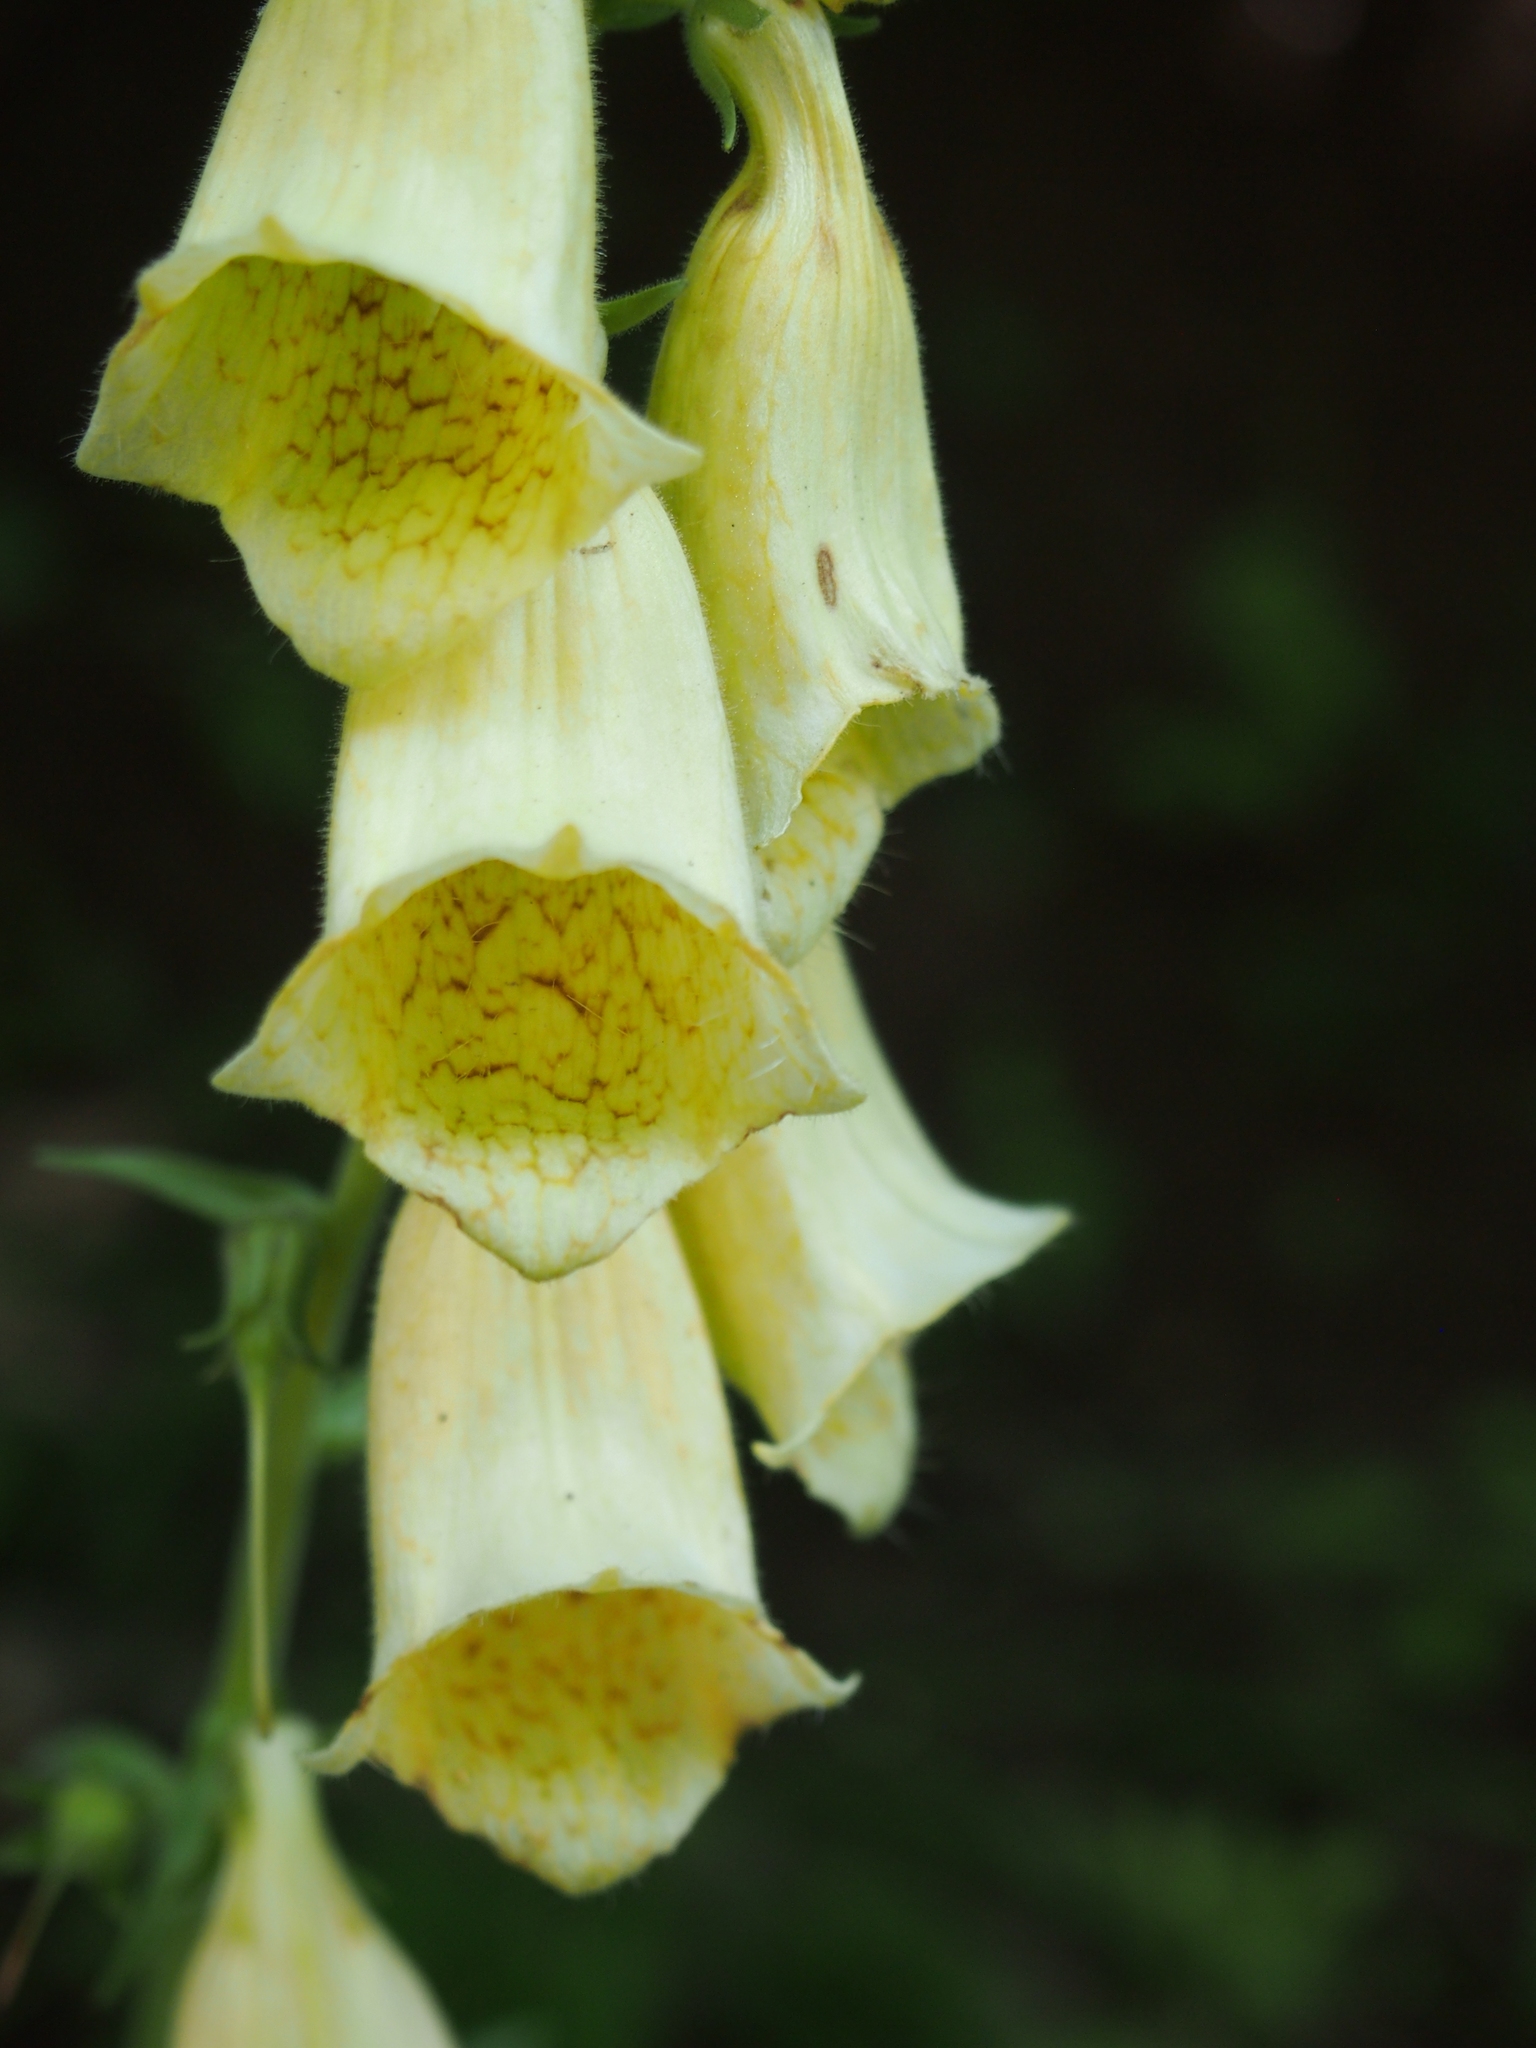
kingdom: Plantae
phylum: Tracheophyta
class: Magnoliopsida
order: Lamiales
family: Plantaginaceae
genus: Digitalis
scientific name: Digitalis grandiflora
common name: Yellow foxglove
